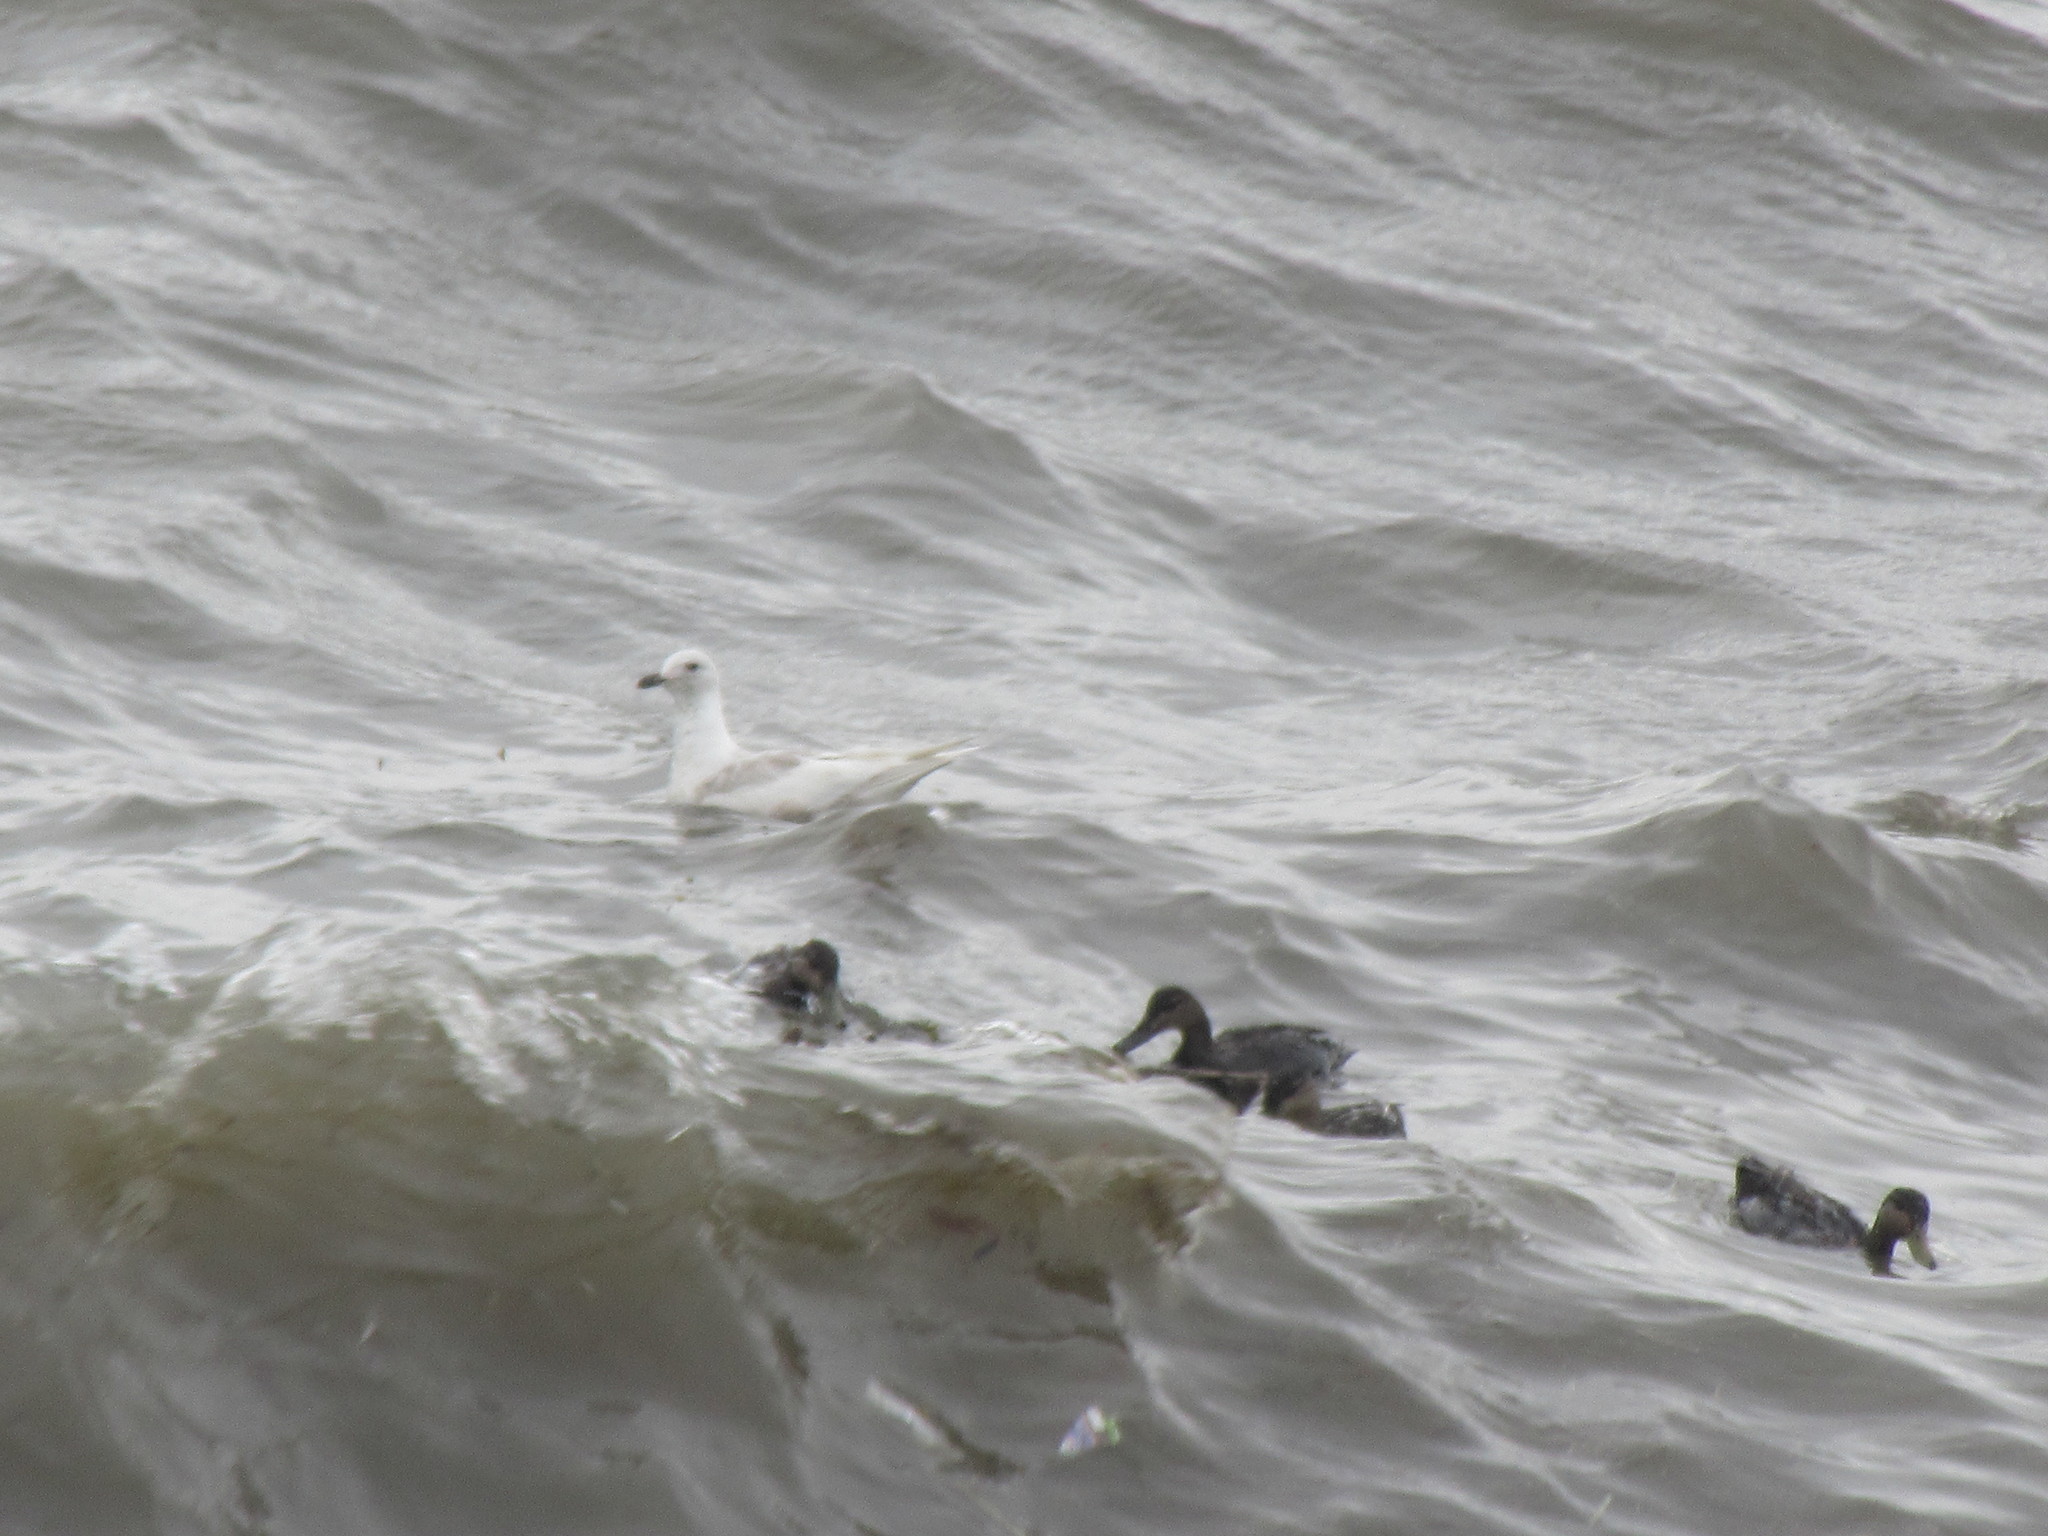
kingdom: Animalia
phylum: Chordata
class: Aves
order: Charadriiformes
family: Laridae
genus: Larus
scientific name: Larus glaucoides
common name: Iceland gull
